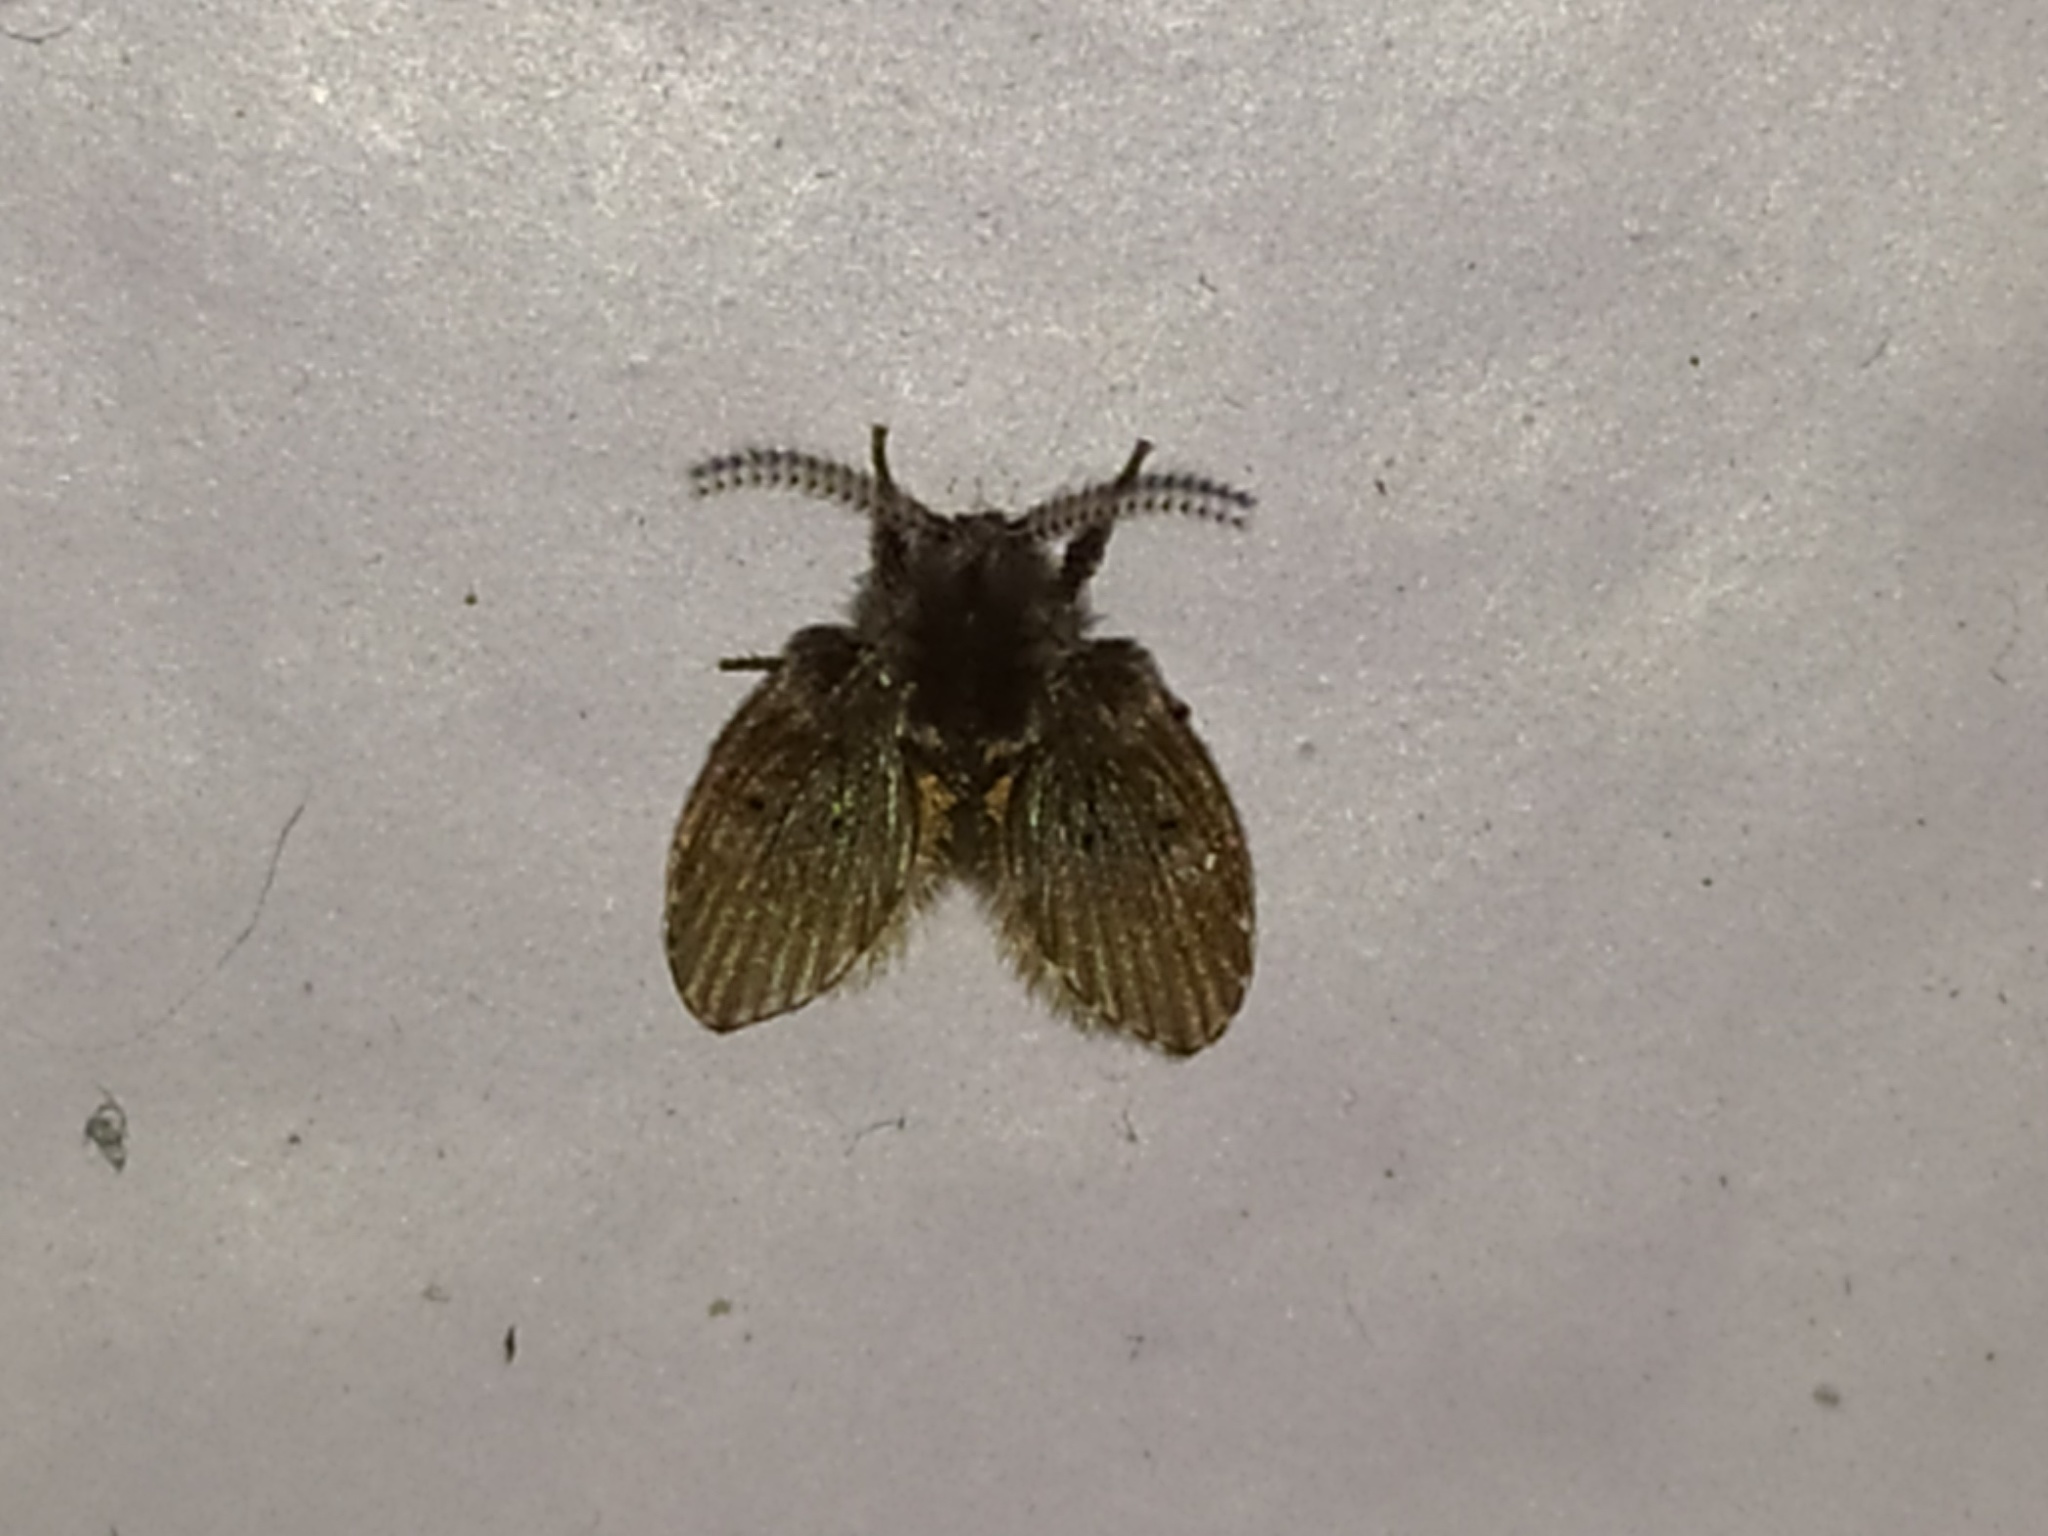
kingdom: Animalia
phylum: Arthropoda
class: Insecta
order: Diptera
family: Psychodidae
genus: Clogmia
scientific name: Clogmia albipunctatus
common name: White-spotted moth fly
